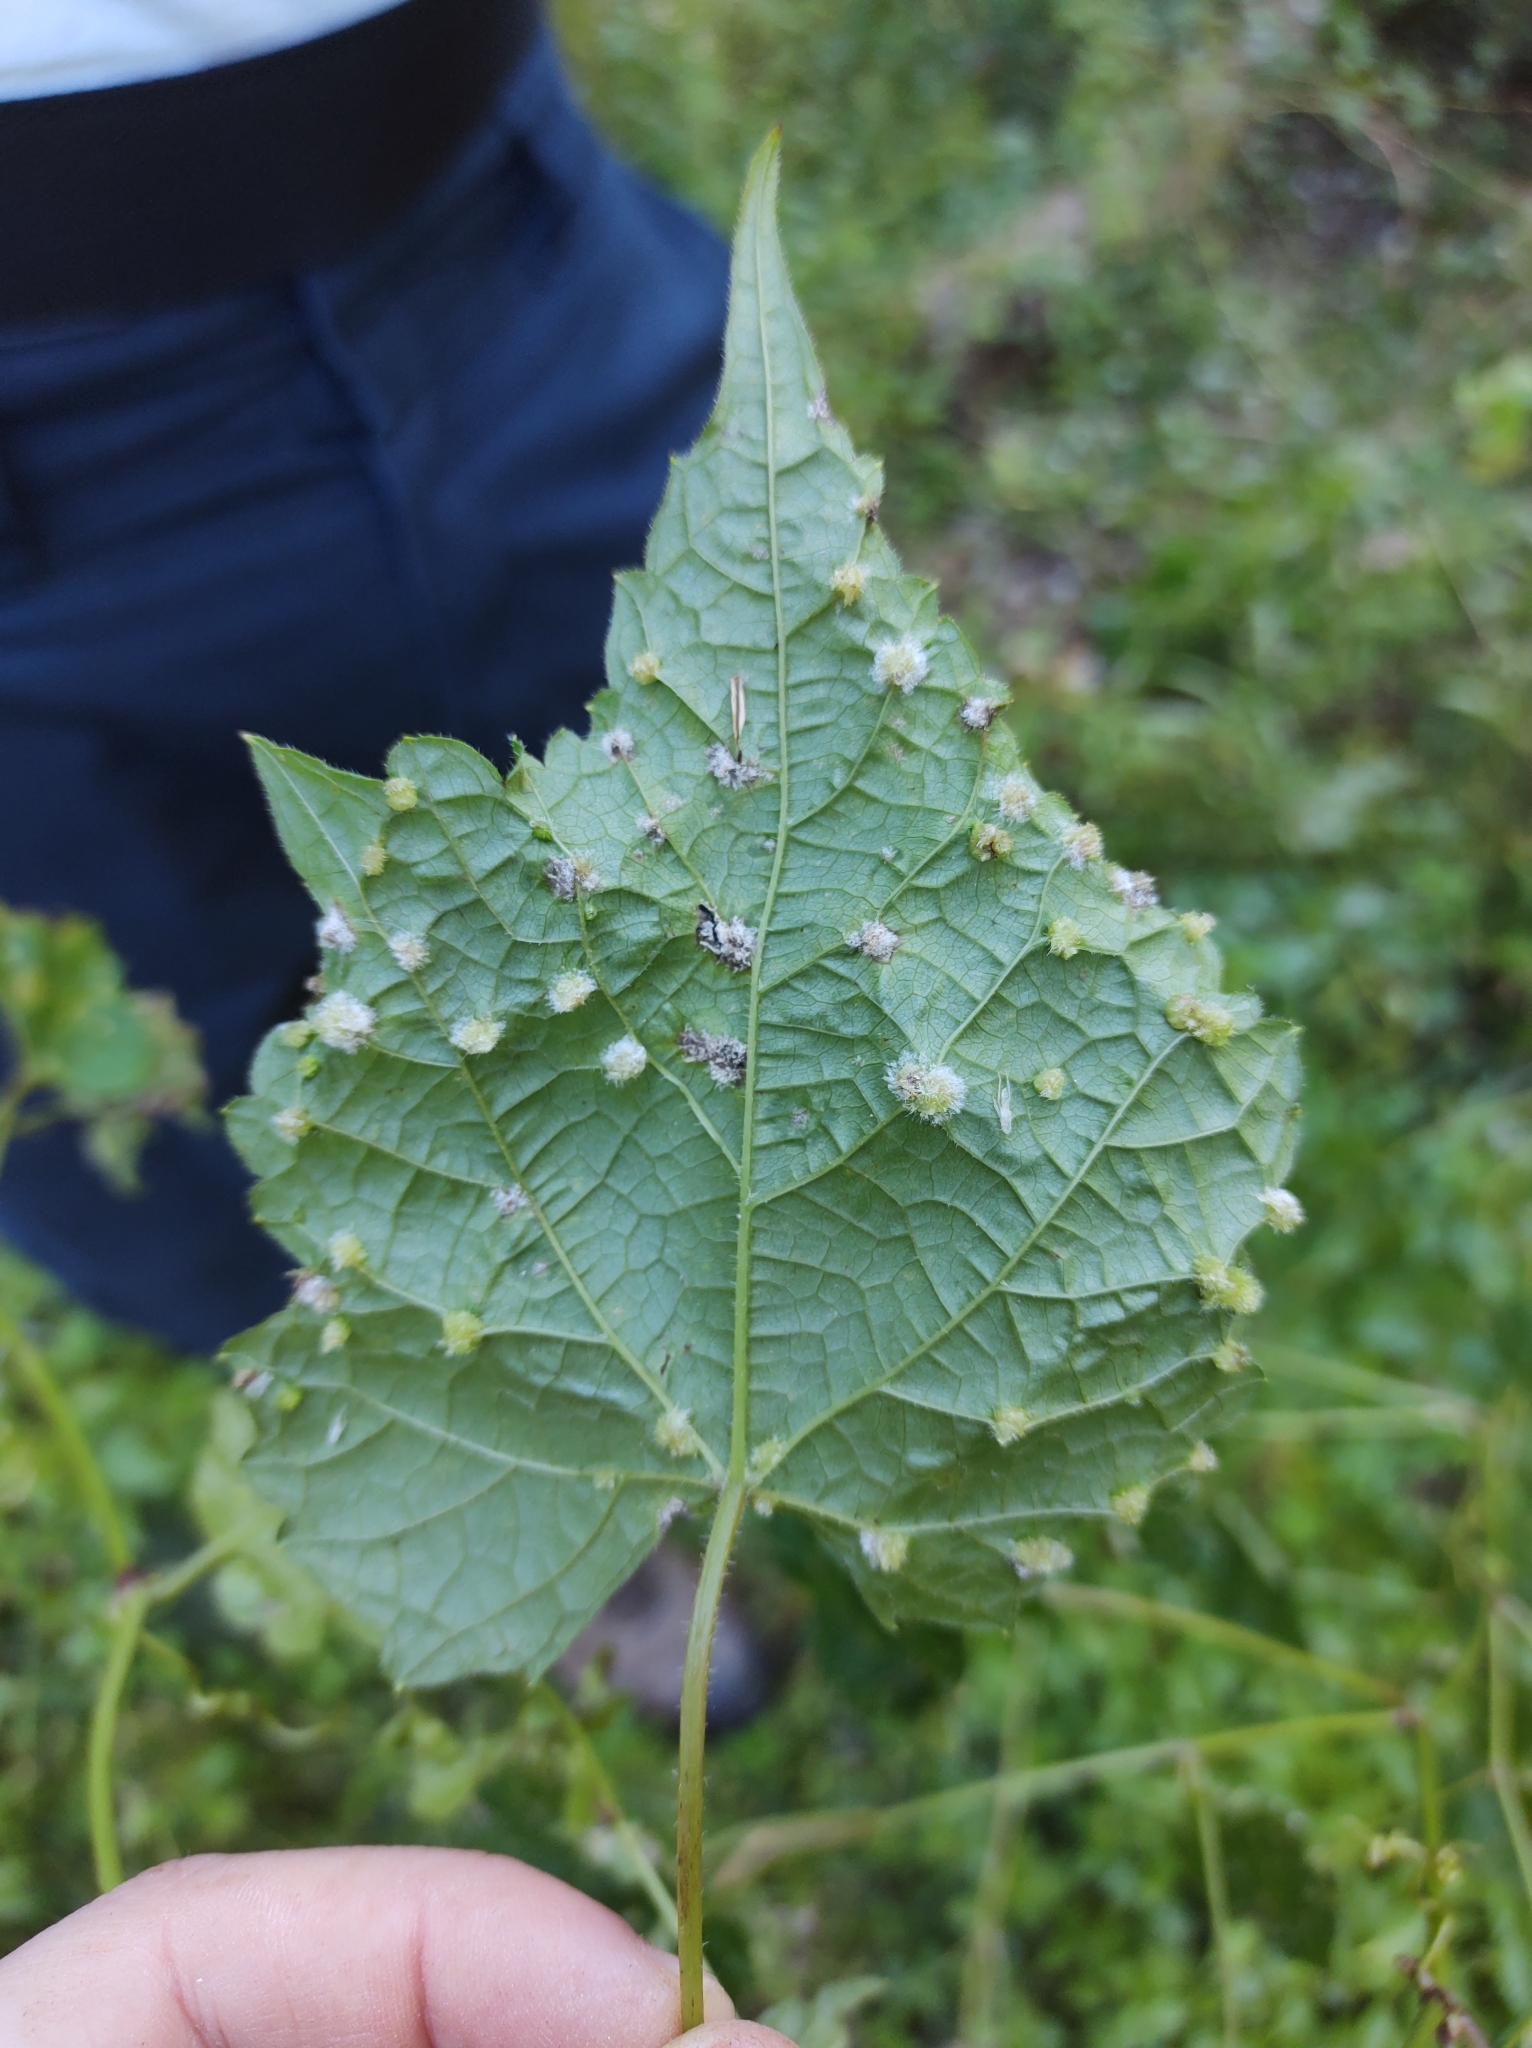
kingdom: Animalia
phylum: Arthropoda
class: Insecta
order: Hemiptera
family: Phylloxeridae
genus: Daktulosphaira
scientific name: Daktulosphaira vitifoliae
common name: Grape phylloxera
